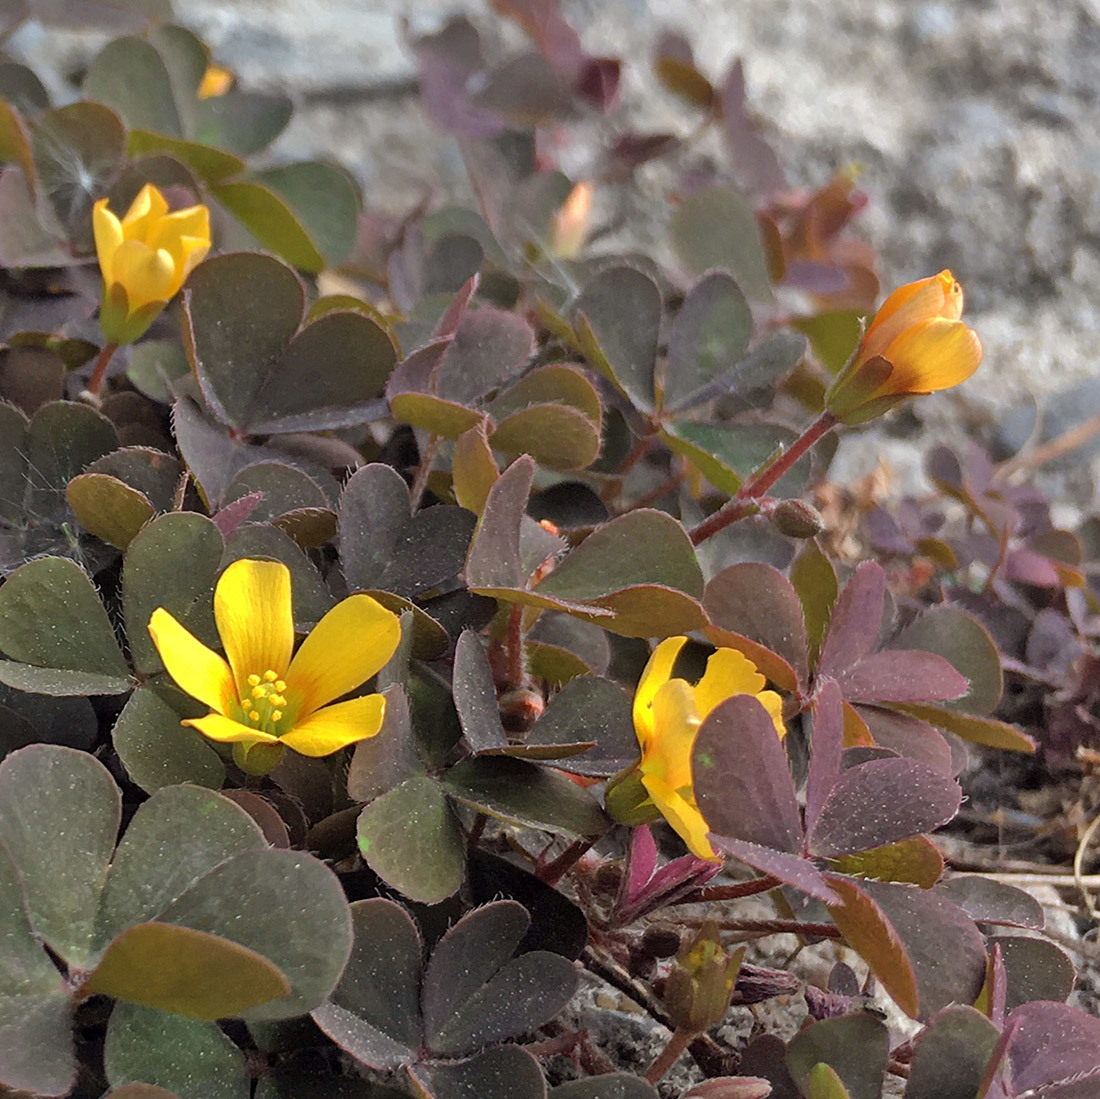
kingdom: Plantae
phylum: Tracheophyta
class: Magnoliopsida
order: Oxalidales
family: Oxalidaceae
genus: Oxalis
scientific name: Oxalis corniculata
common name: Procumbent yellow-sorrel
